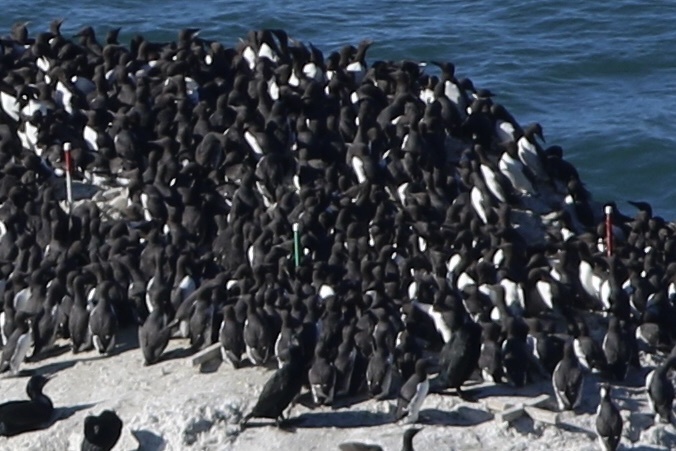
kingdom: Animalia
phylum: Chordata
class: Aves
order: Charadriiformes
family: Alcidae
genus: Uria
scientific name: Uria aalge
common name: Common murre
